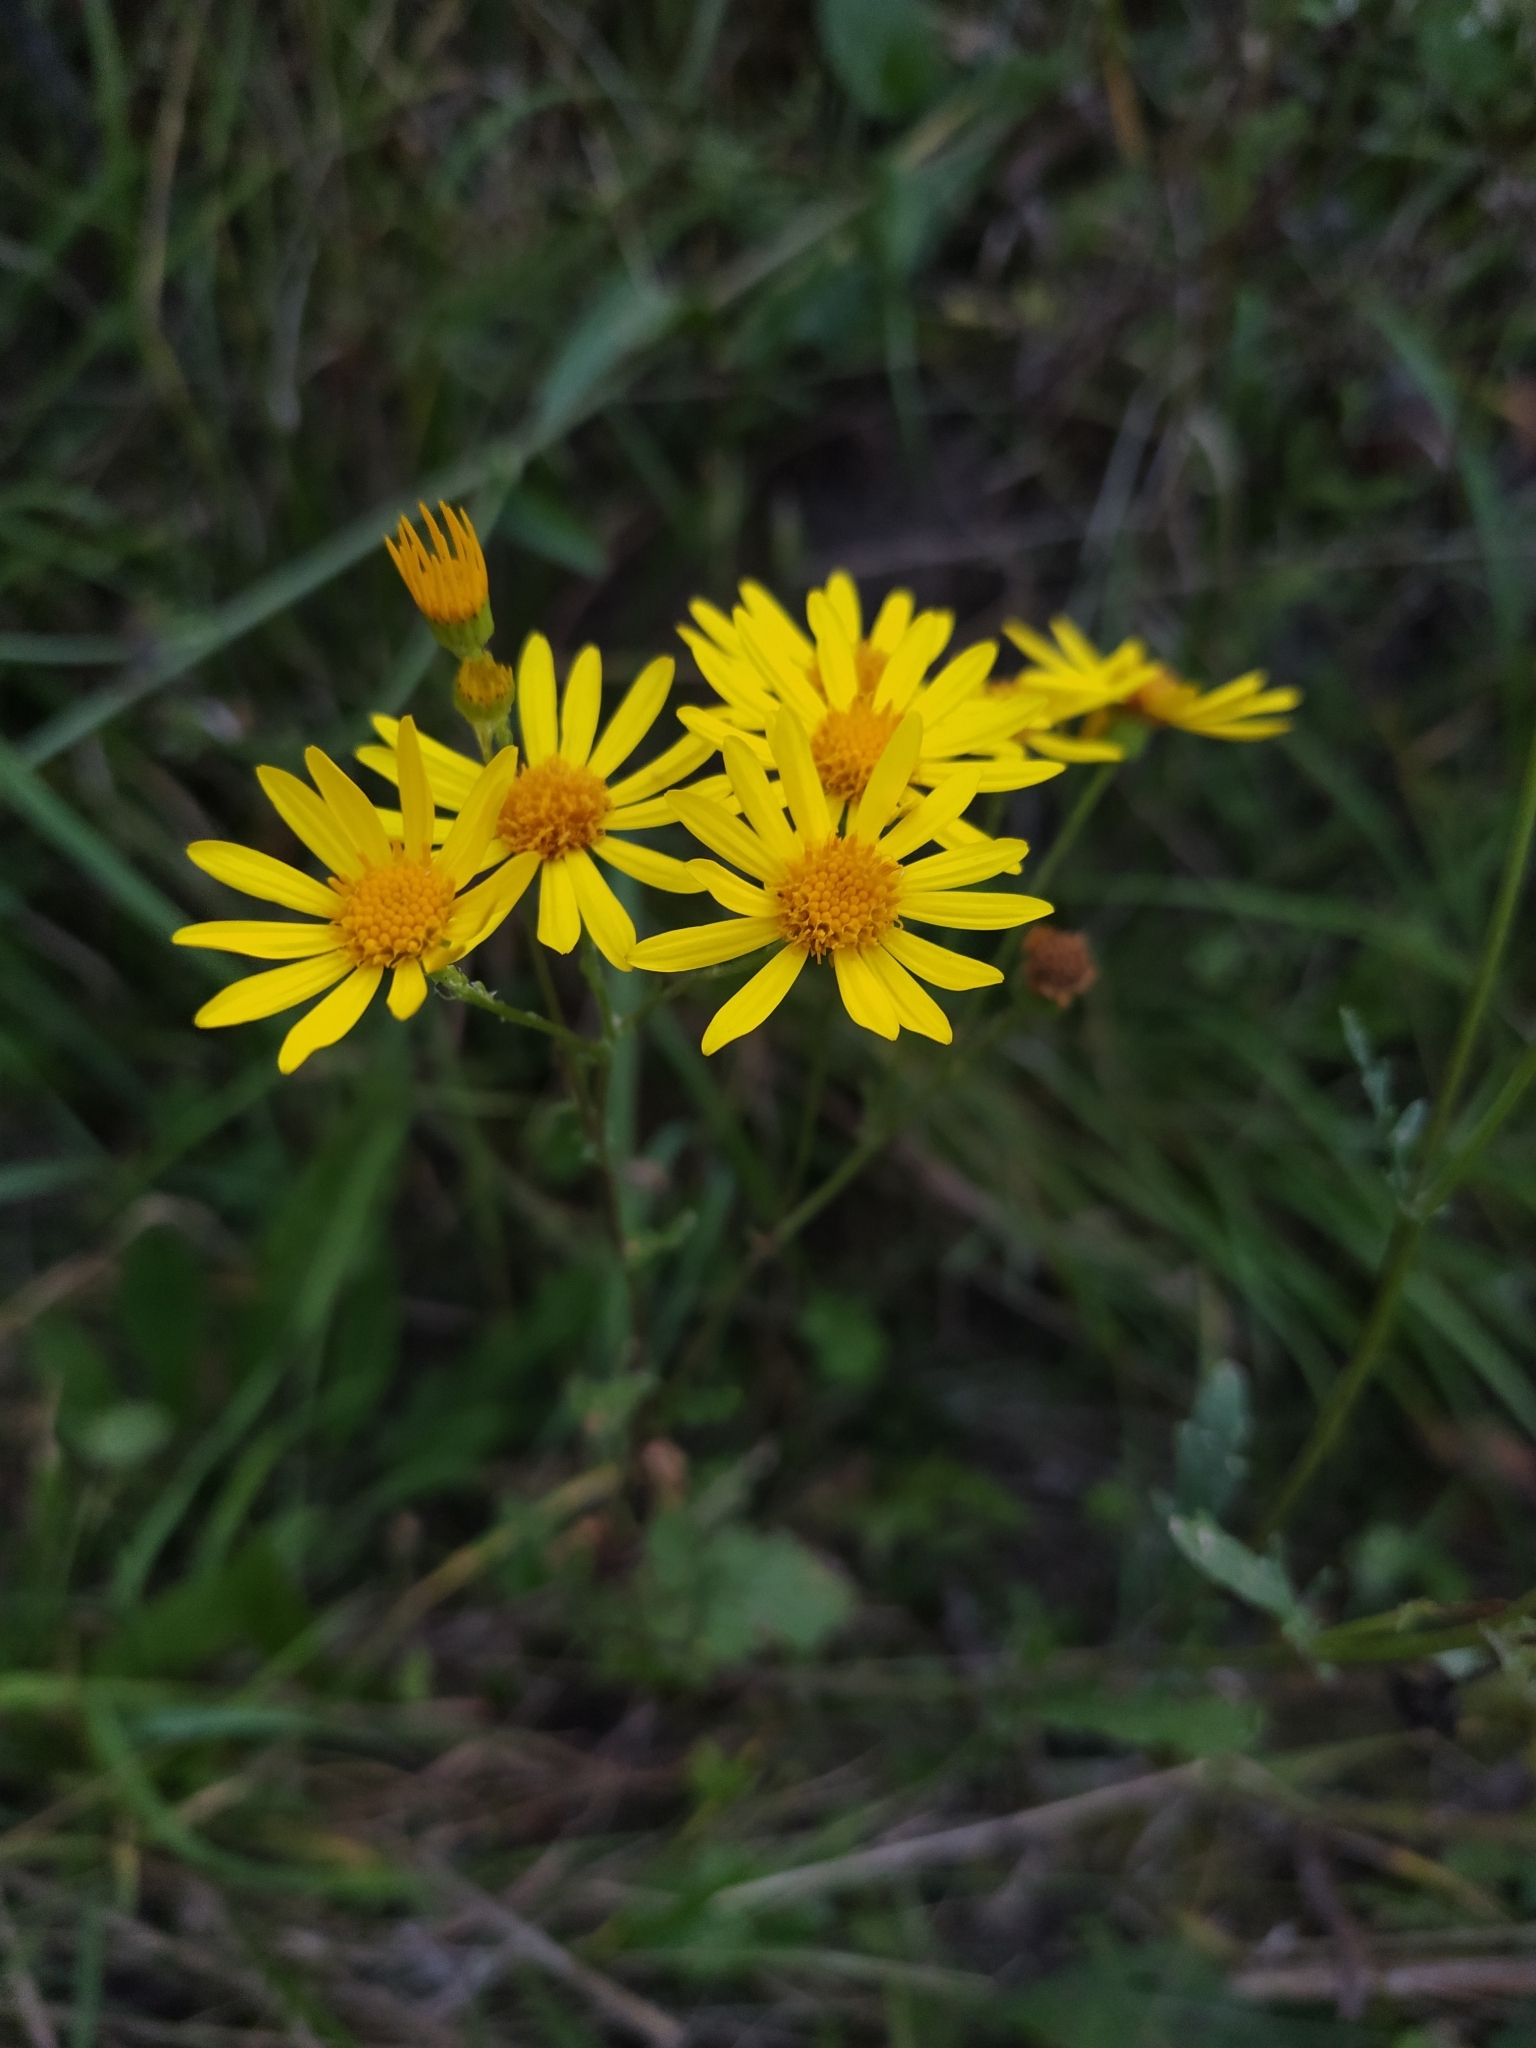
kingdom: Plantae
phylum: Tracheophyta
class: Magnoliopsida
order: Asterales
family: Asteraceae
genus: Jacobaea
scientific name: Jacobaea vulgaris
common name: Stinking willie
